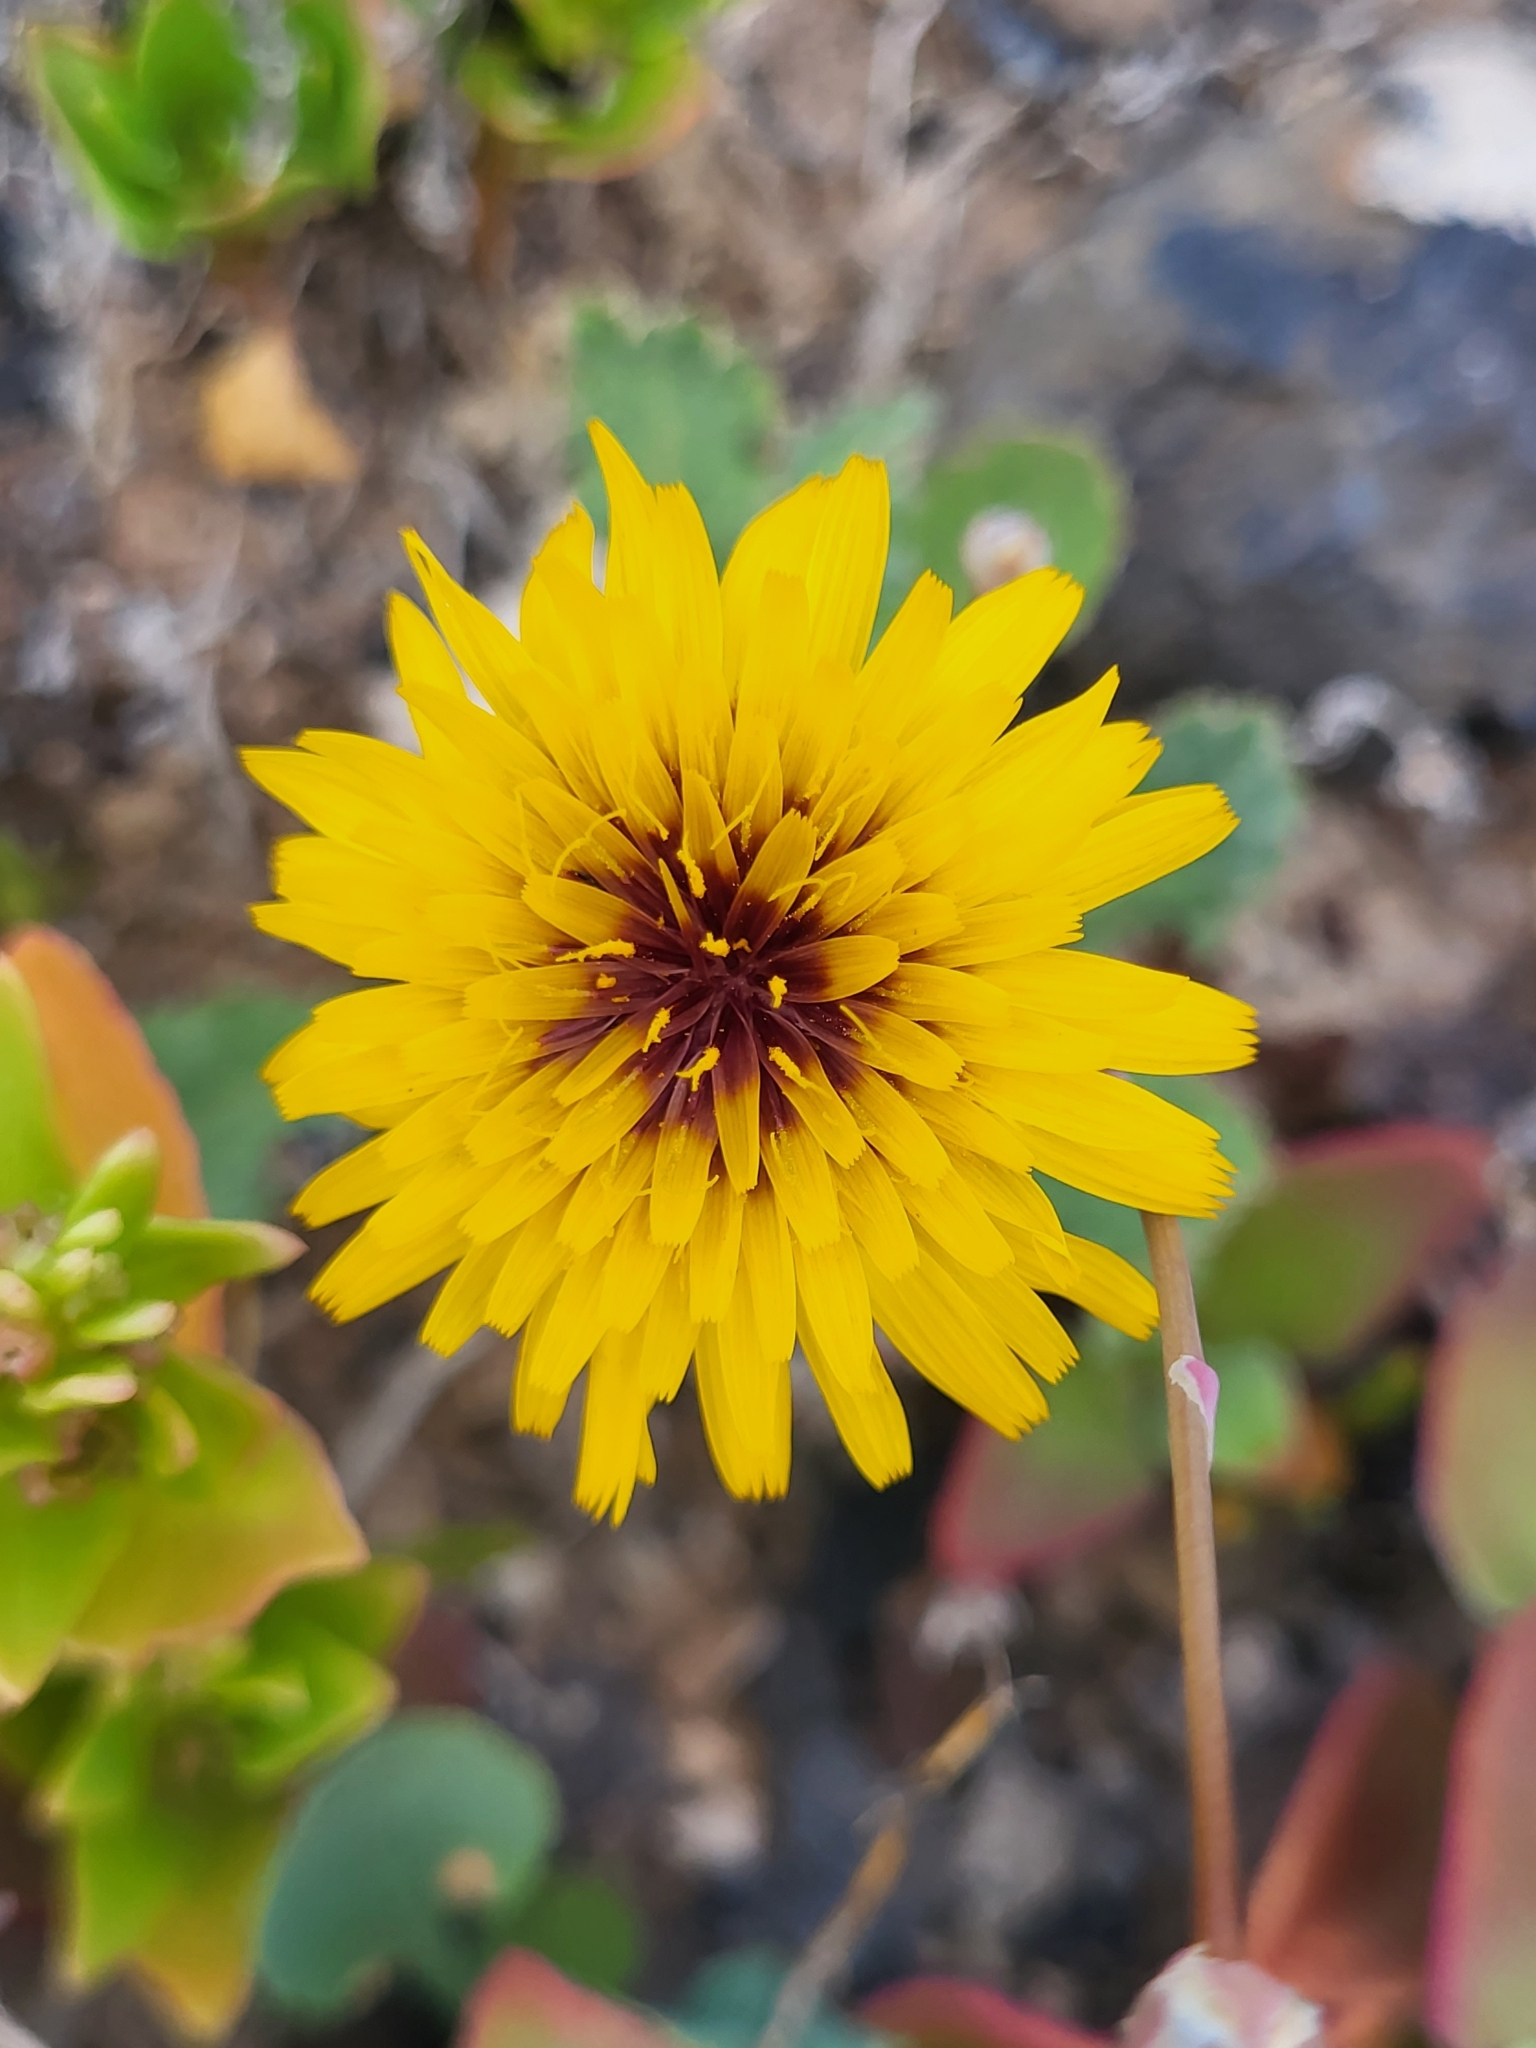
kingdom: Plantae
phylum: Tracheophyta
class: Magnoliopsida
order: Asterales
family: Asteraceae
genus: Reichardia
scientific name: Reichardia tingitana
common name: Reichardia
